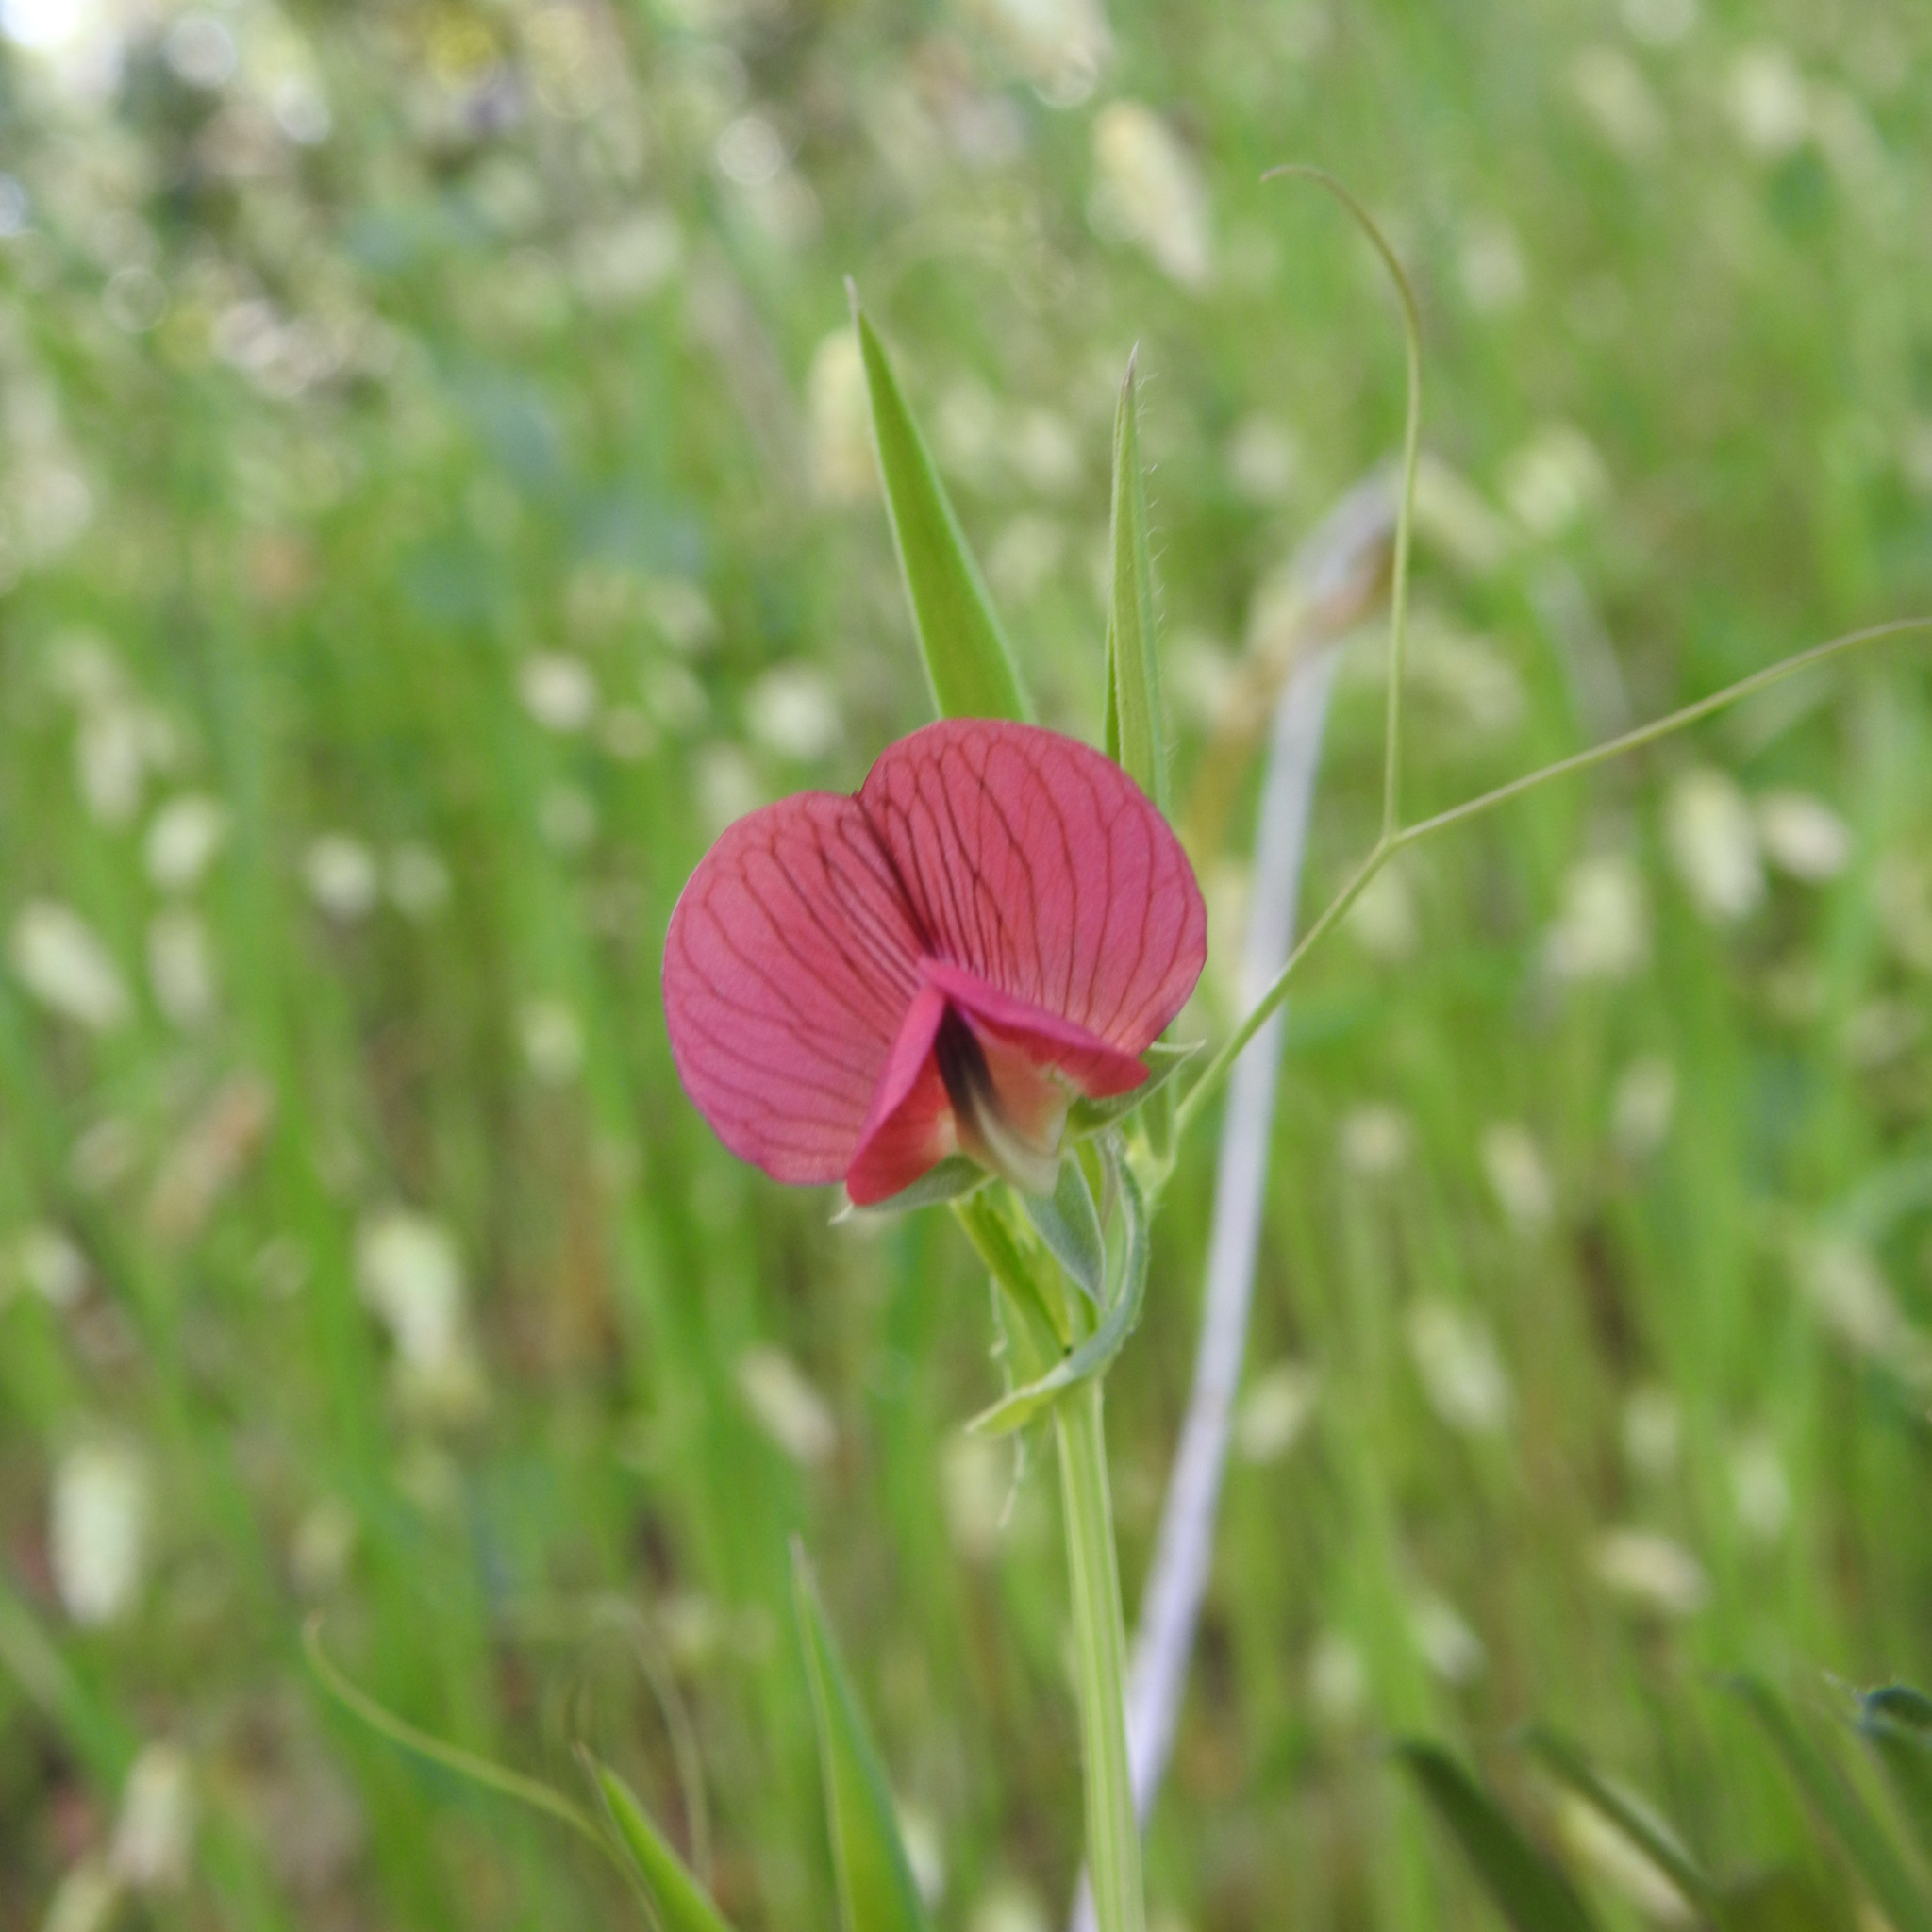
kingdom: Plantae
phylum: Tracheophyta
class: Magnoliopsida
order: Fabales
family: Fabaceae
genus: Lathyrus
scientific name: Lathyrus cicera
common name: Red vetchling
